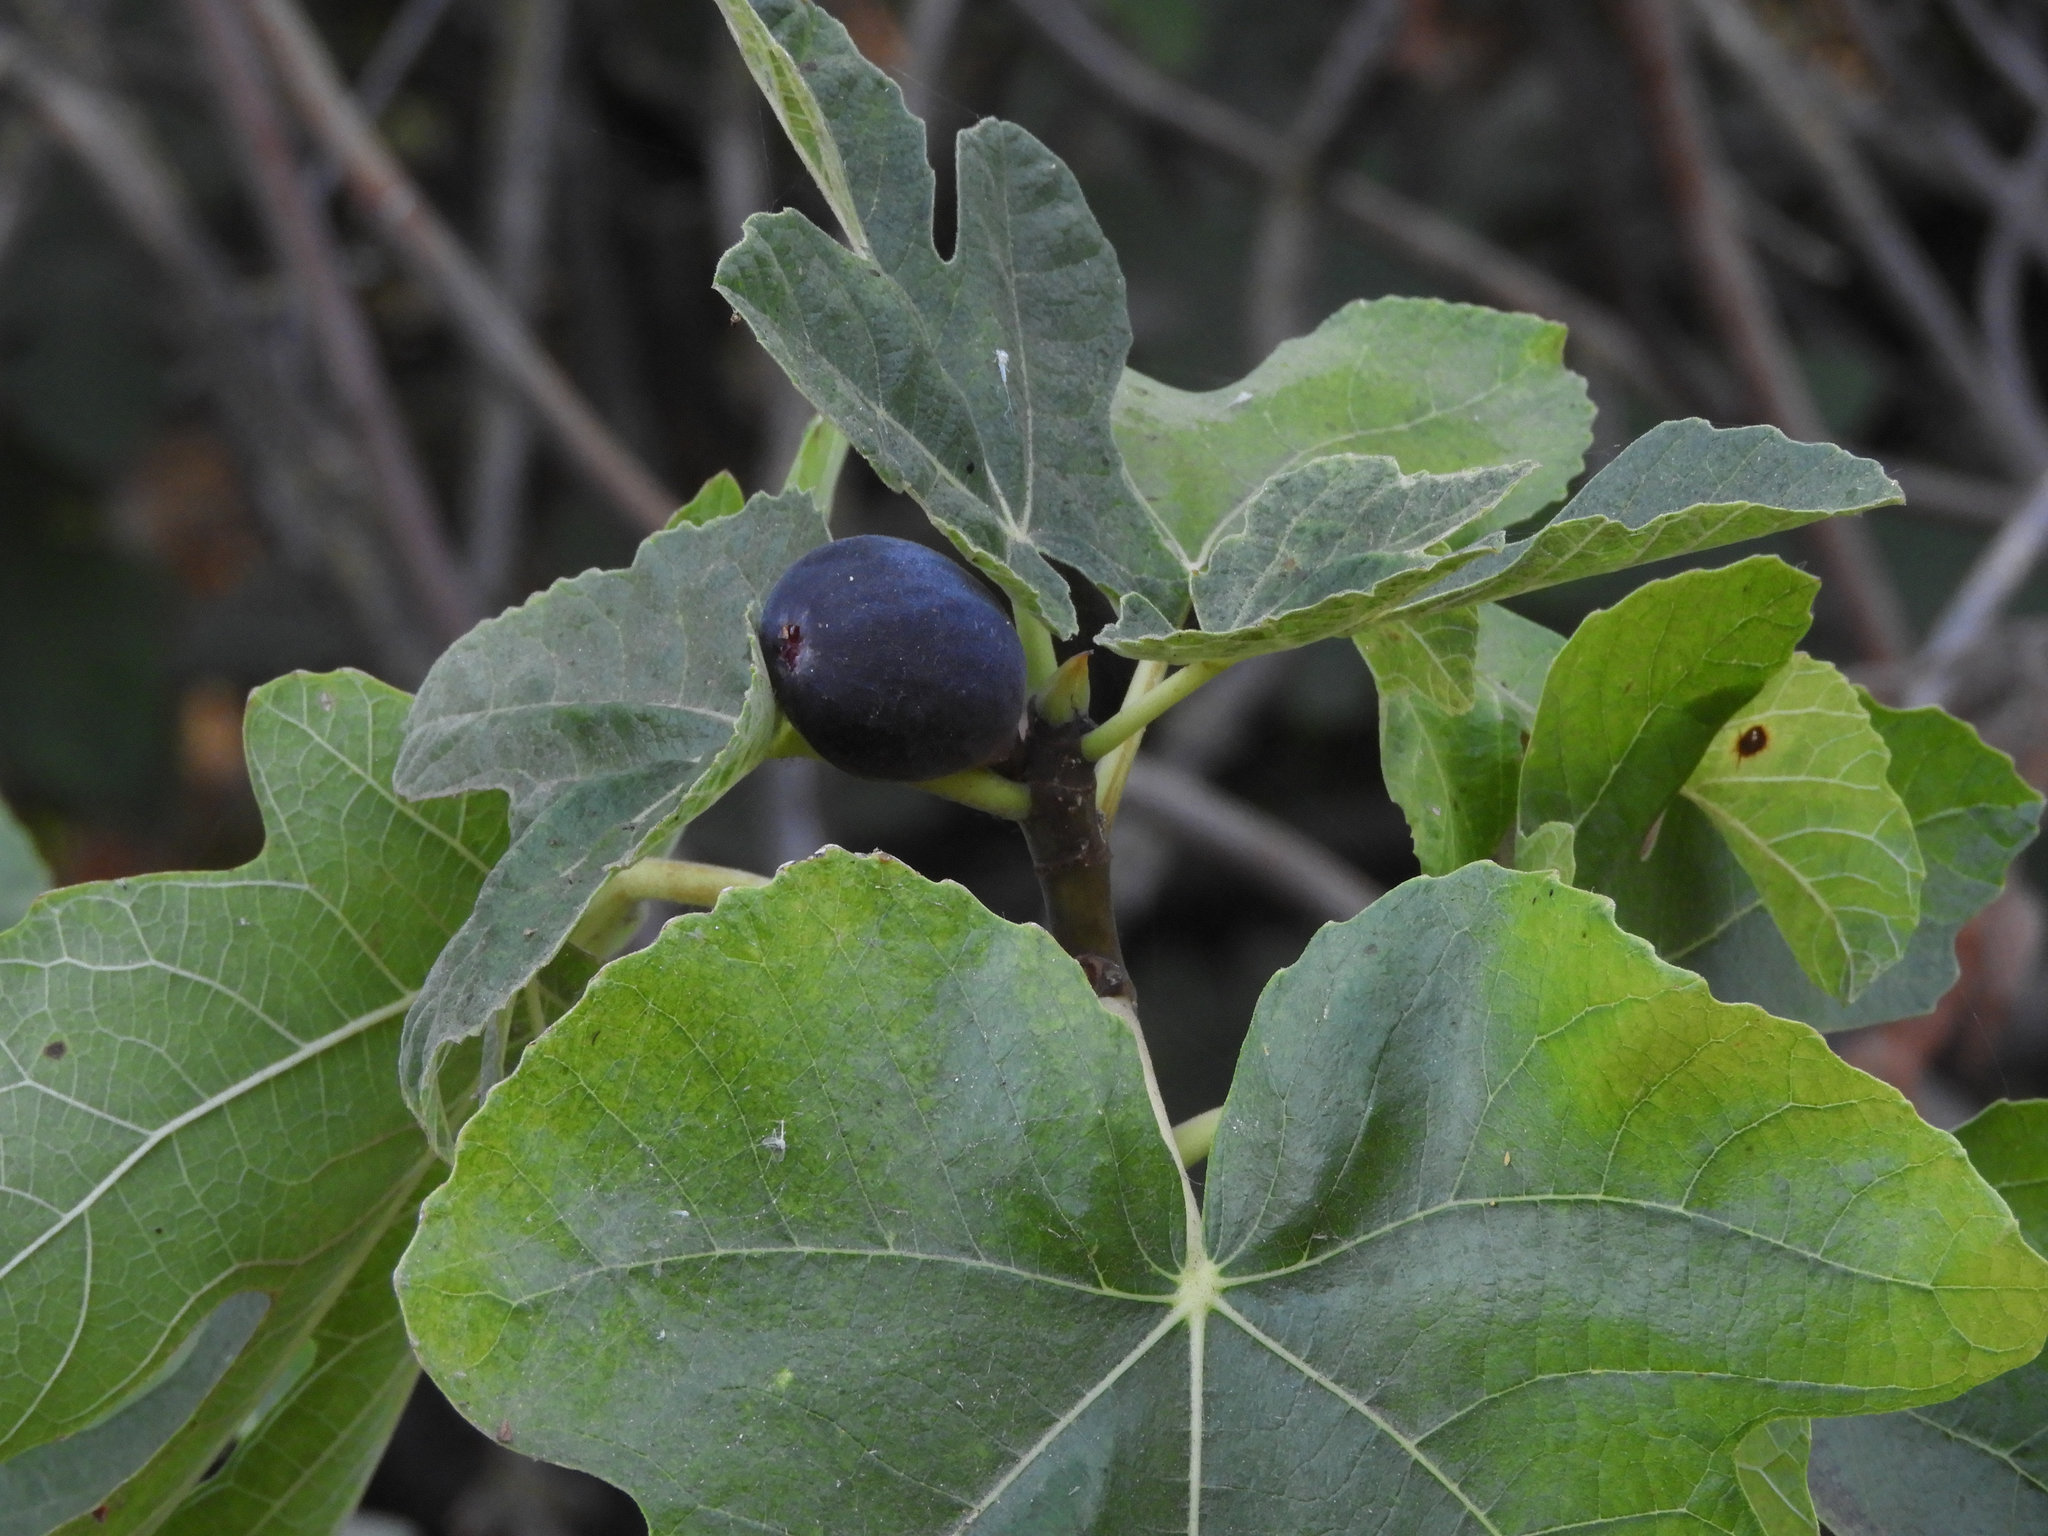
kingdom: Plantae
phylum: Tracheophyta
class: Magnoliopsida
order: Rosales
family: Moraceae
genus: Ficus
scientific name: Ficus carica
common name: Fig
